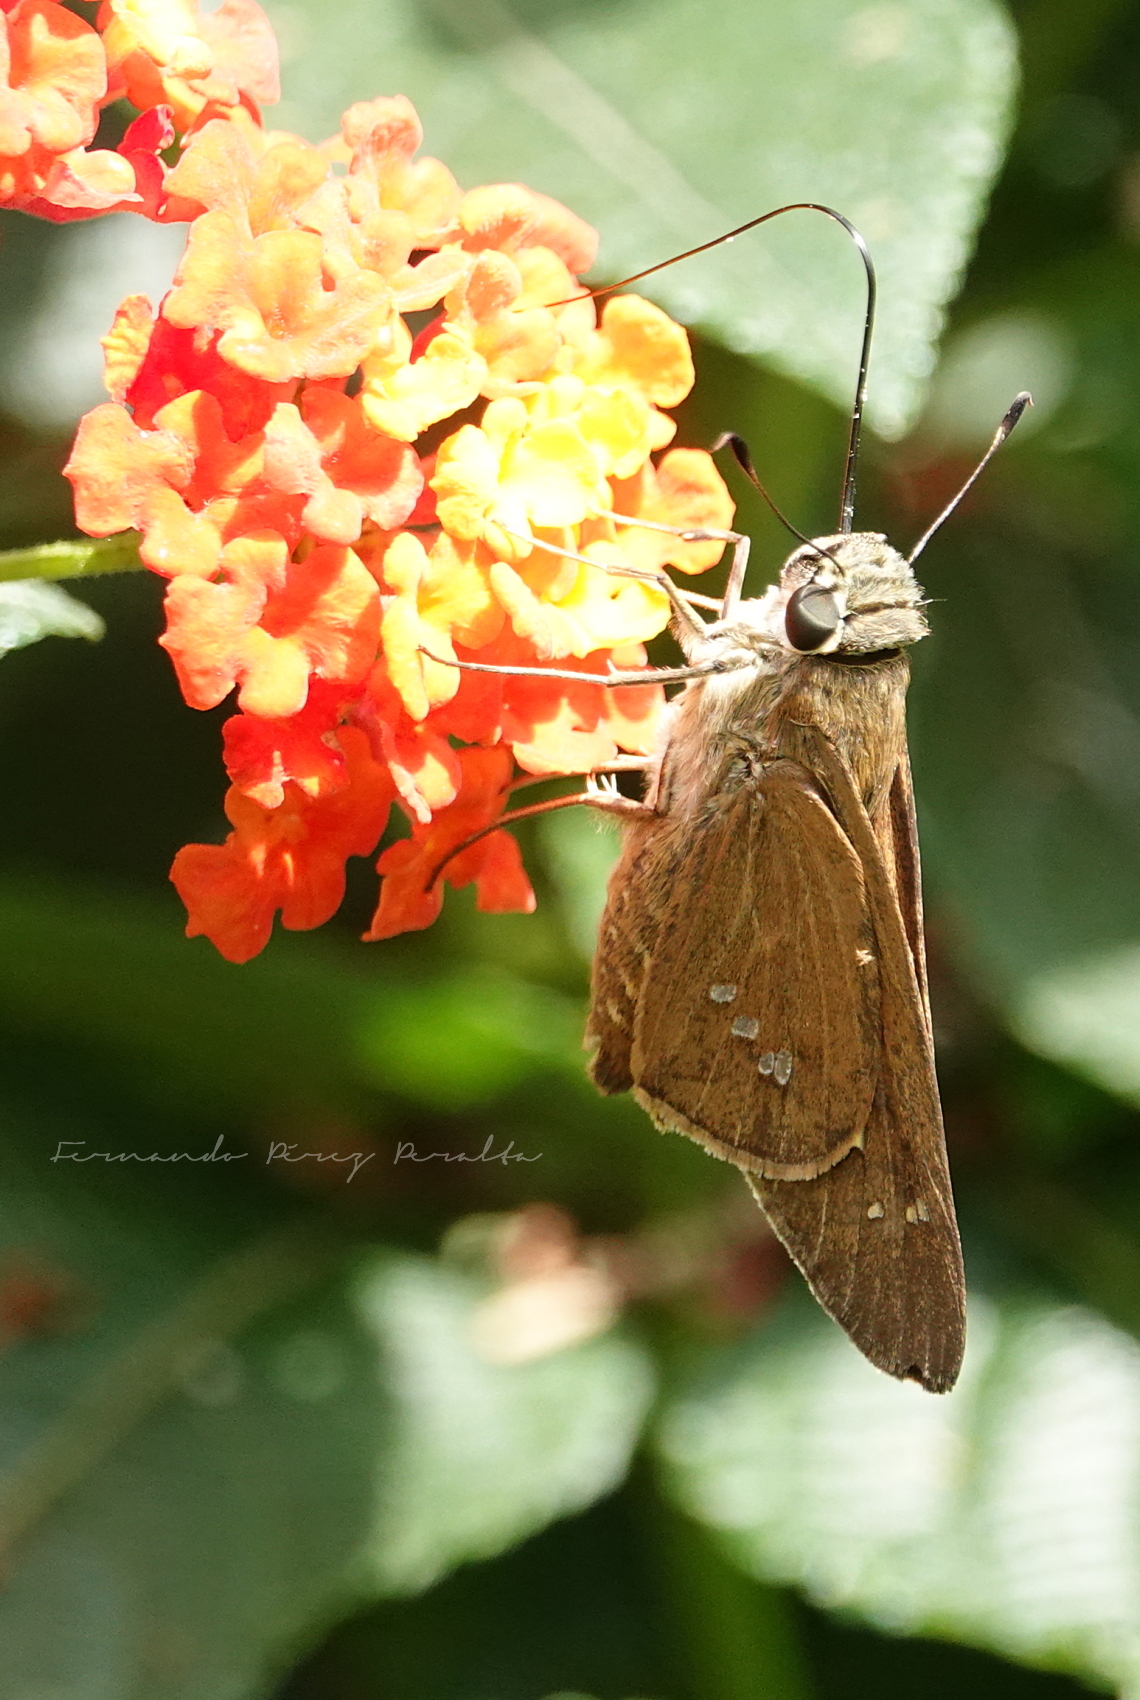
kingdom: Animalia
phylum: Arthropoda
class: Insecta
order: Lepidoptera
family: Hesperiidae
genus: Calpodes
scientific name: Calpodes ethlius
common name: Brazilian skipper
